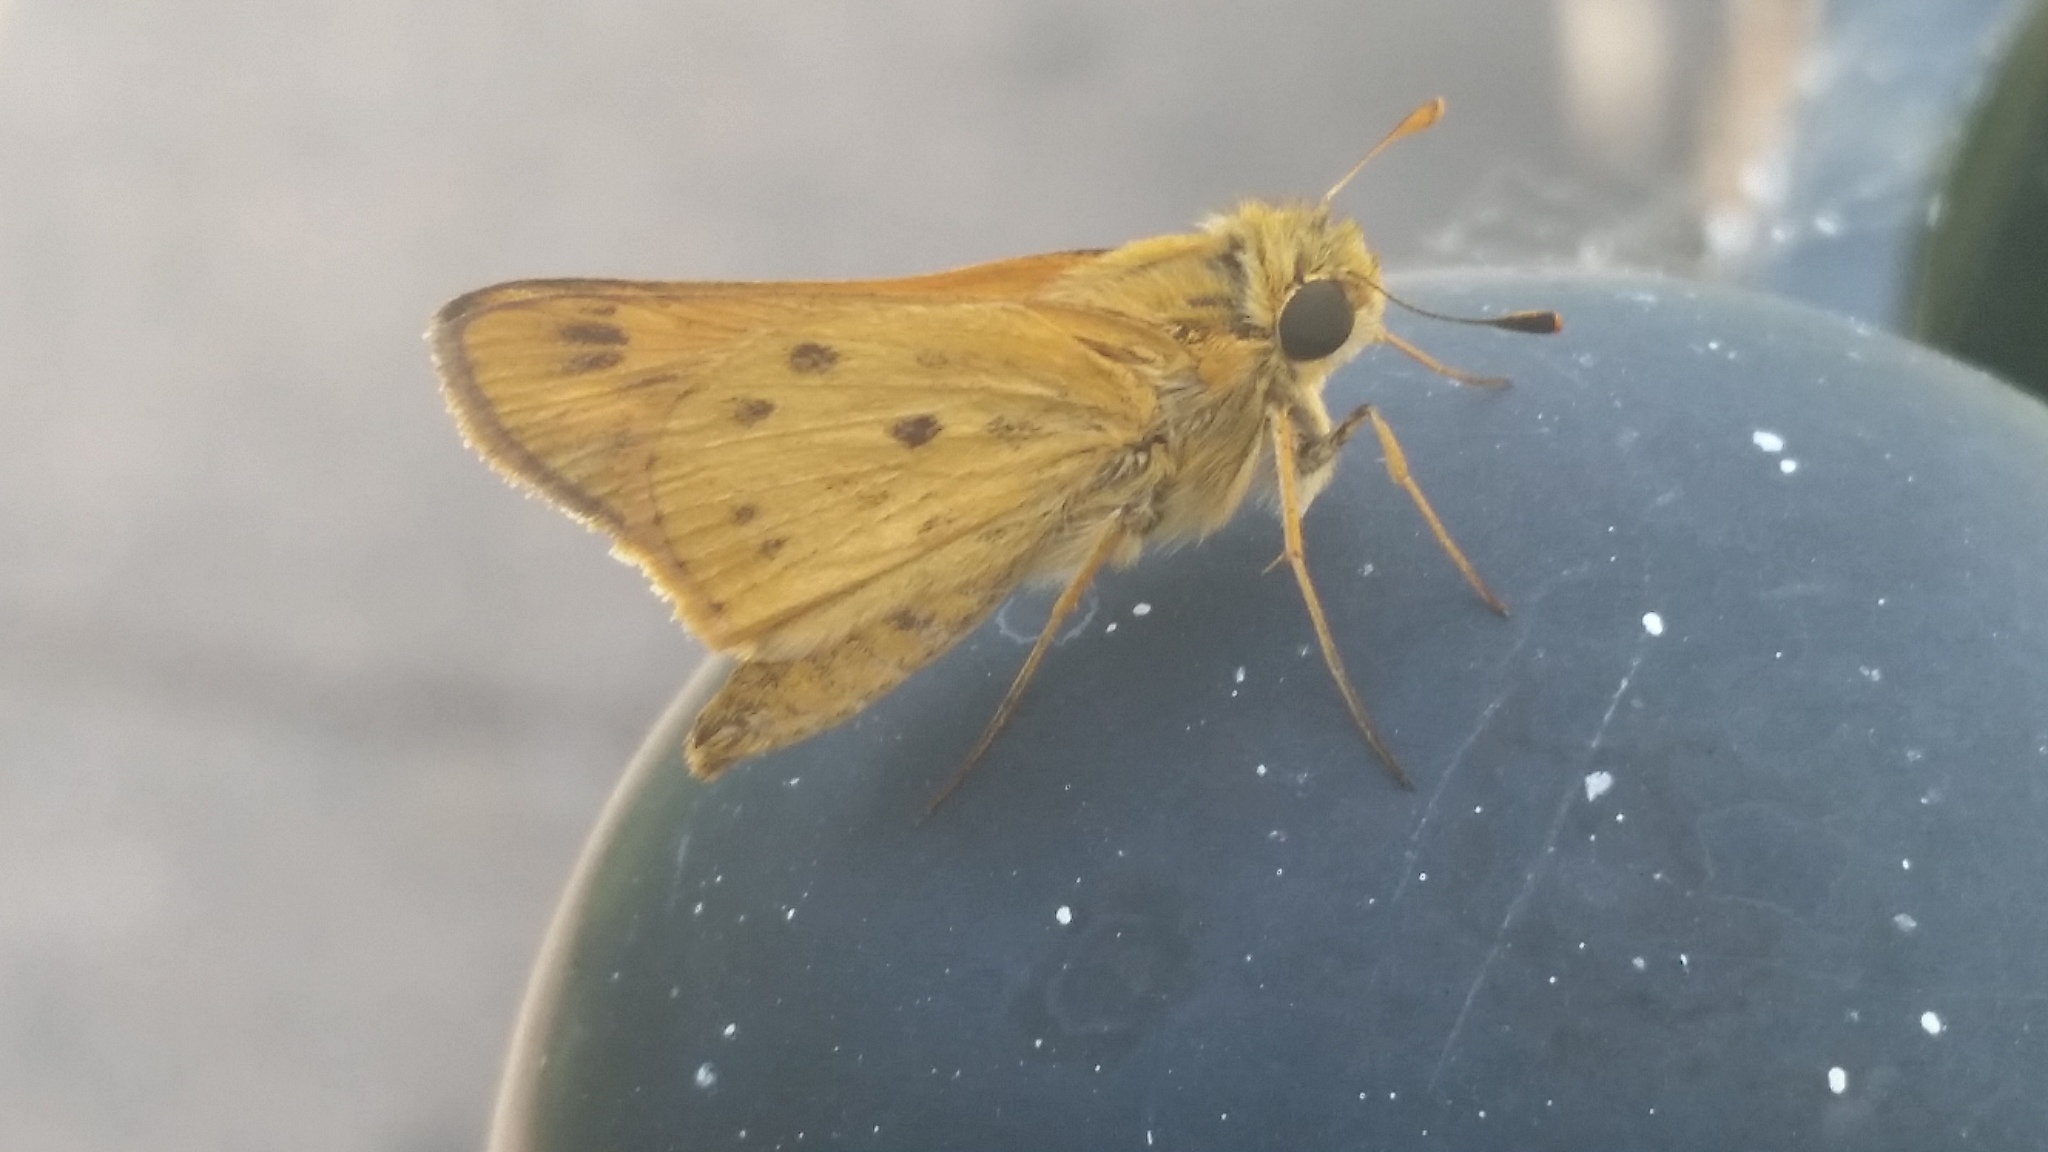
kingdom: Animalia
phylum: Arthropoda
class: Insecta
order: Lepidoptera
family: Hesperiidae
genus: Hylephila
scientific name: Hylephila phyleus
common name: Fiery skipper
